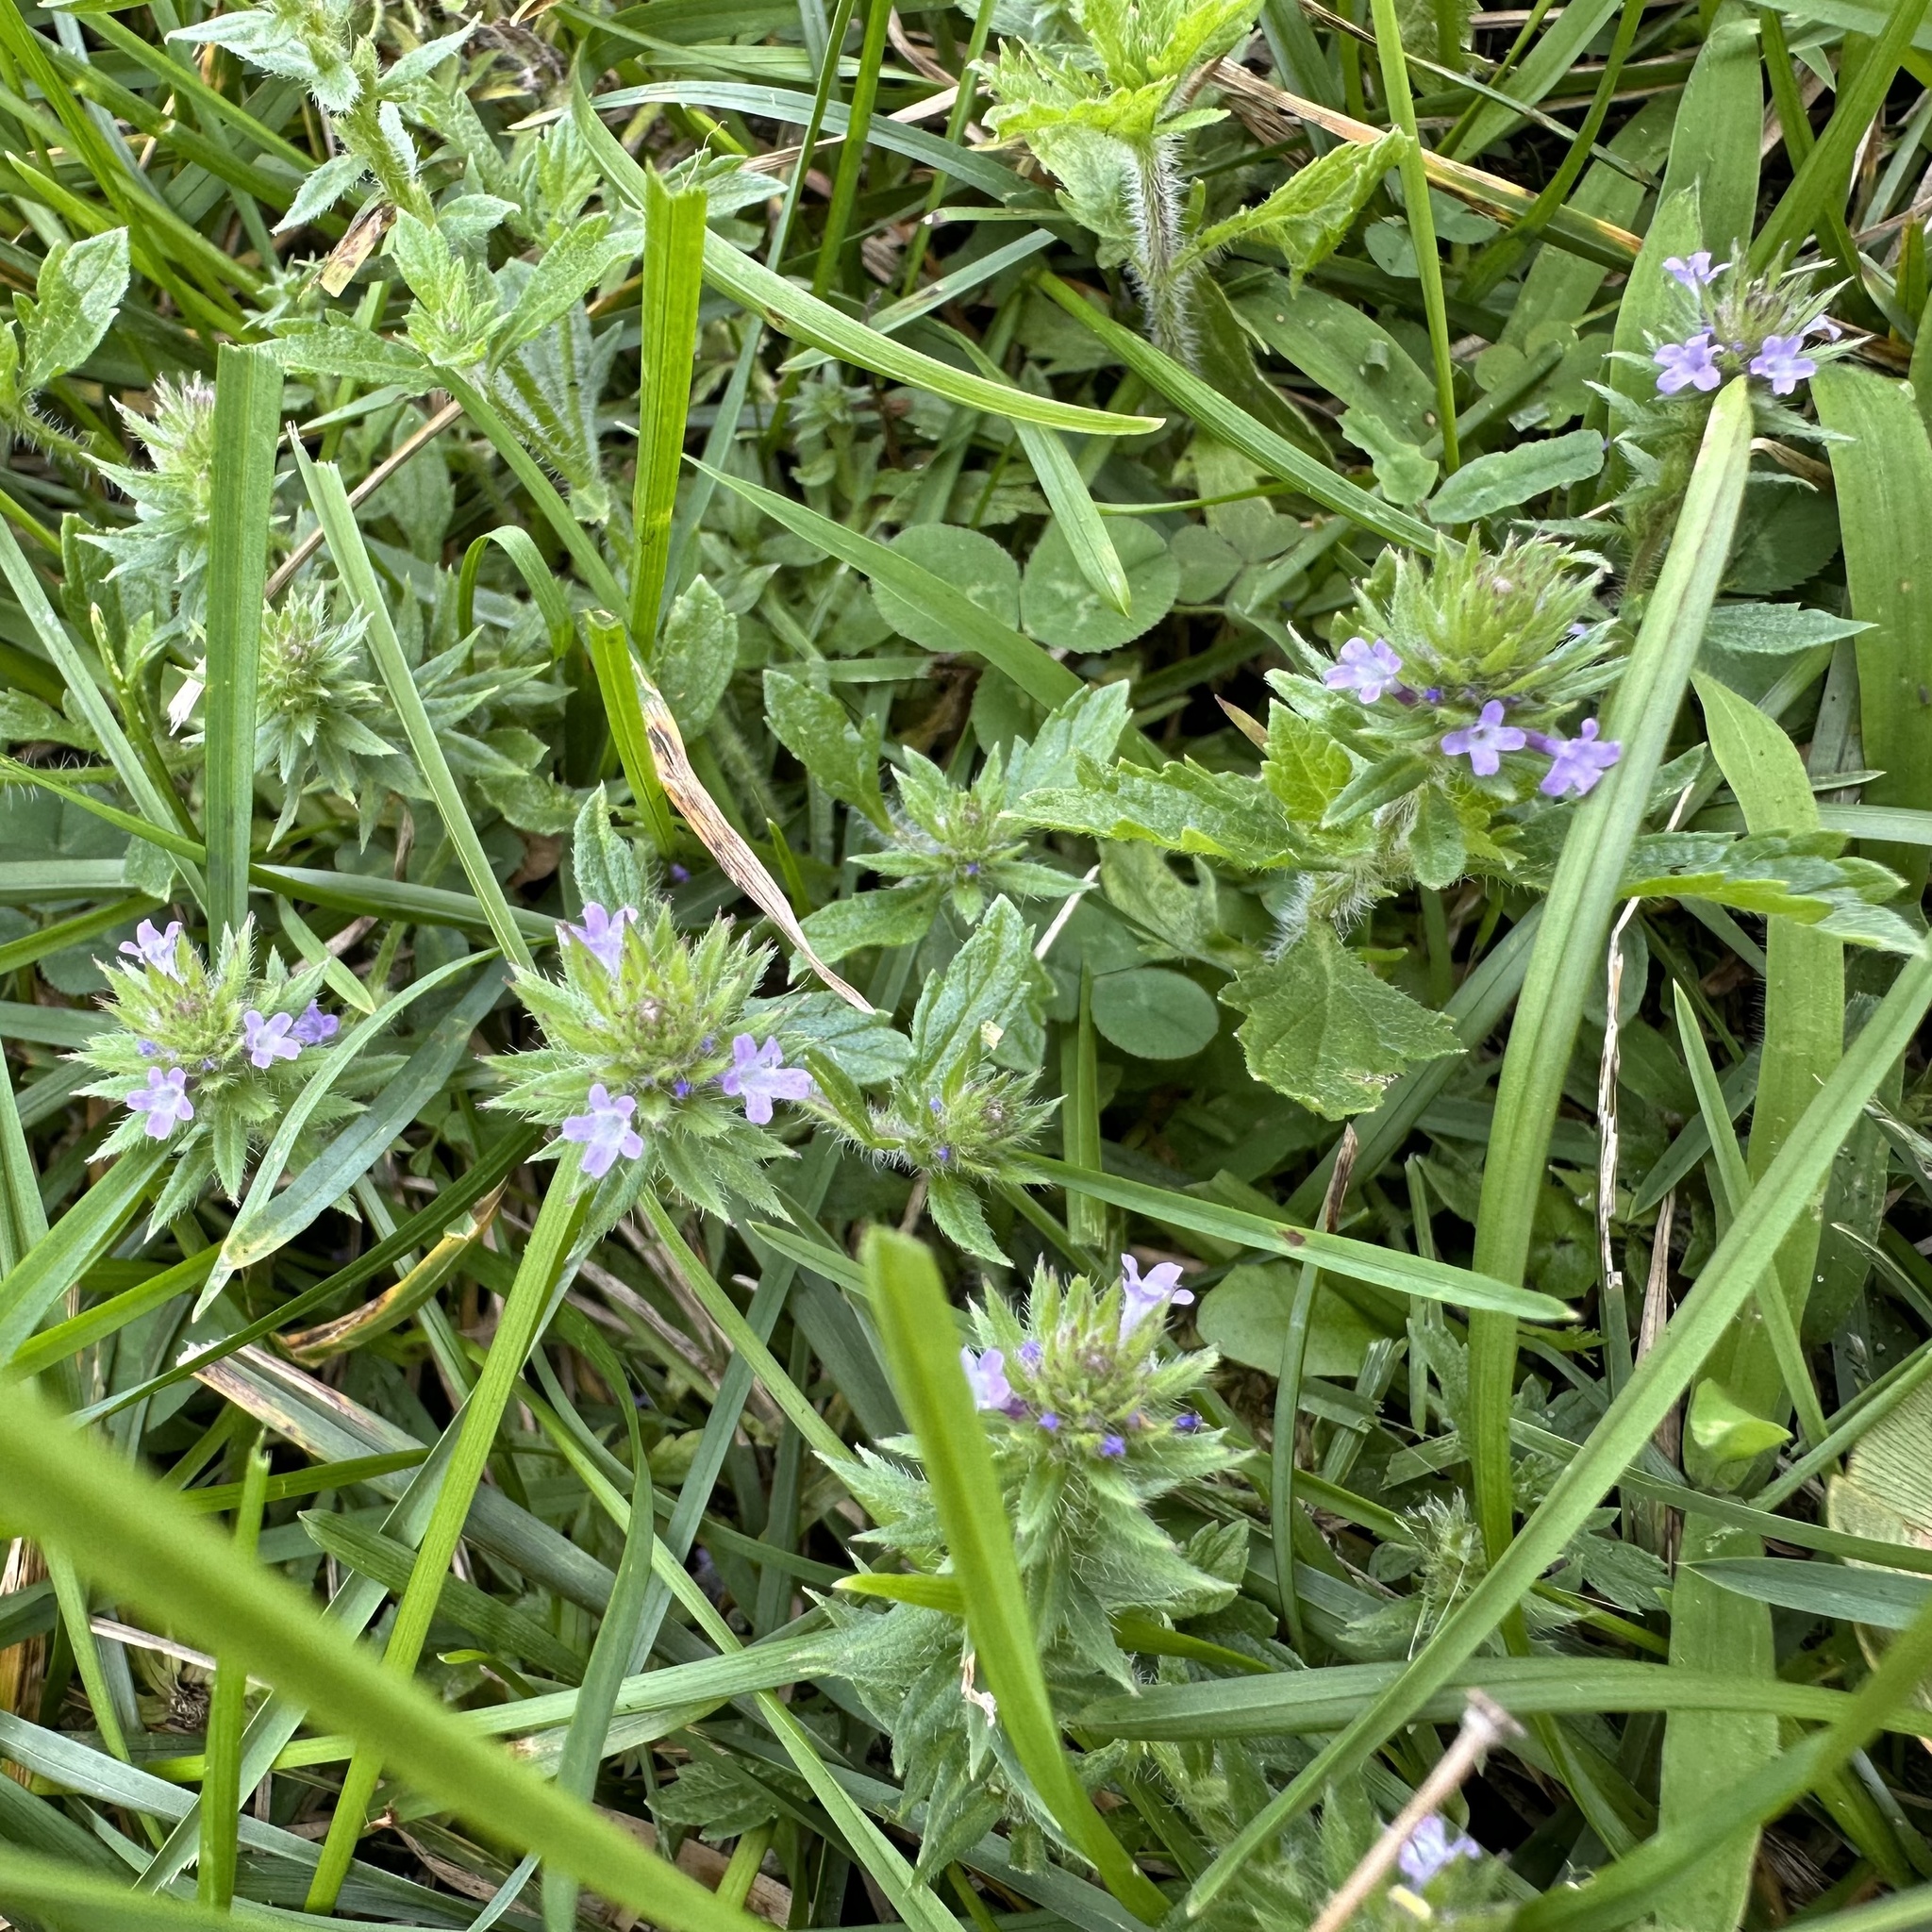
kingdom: Plantae
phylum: Tracheophyta
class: Magnoliopsida
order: Lamiales
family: Verbenaceae
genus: Verbena
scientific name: Verbena bracteata
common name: Bracted vervain
